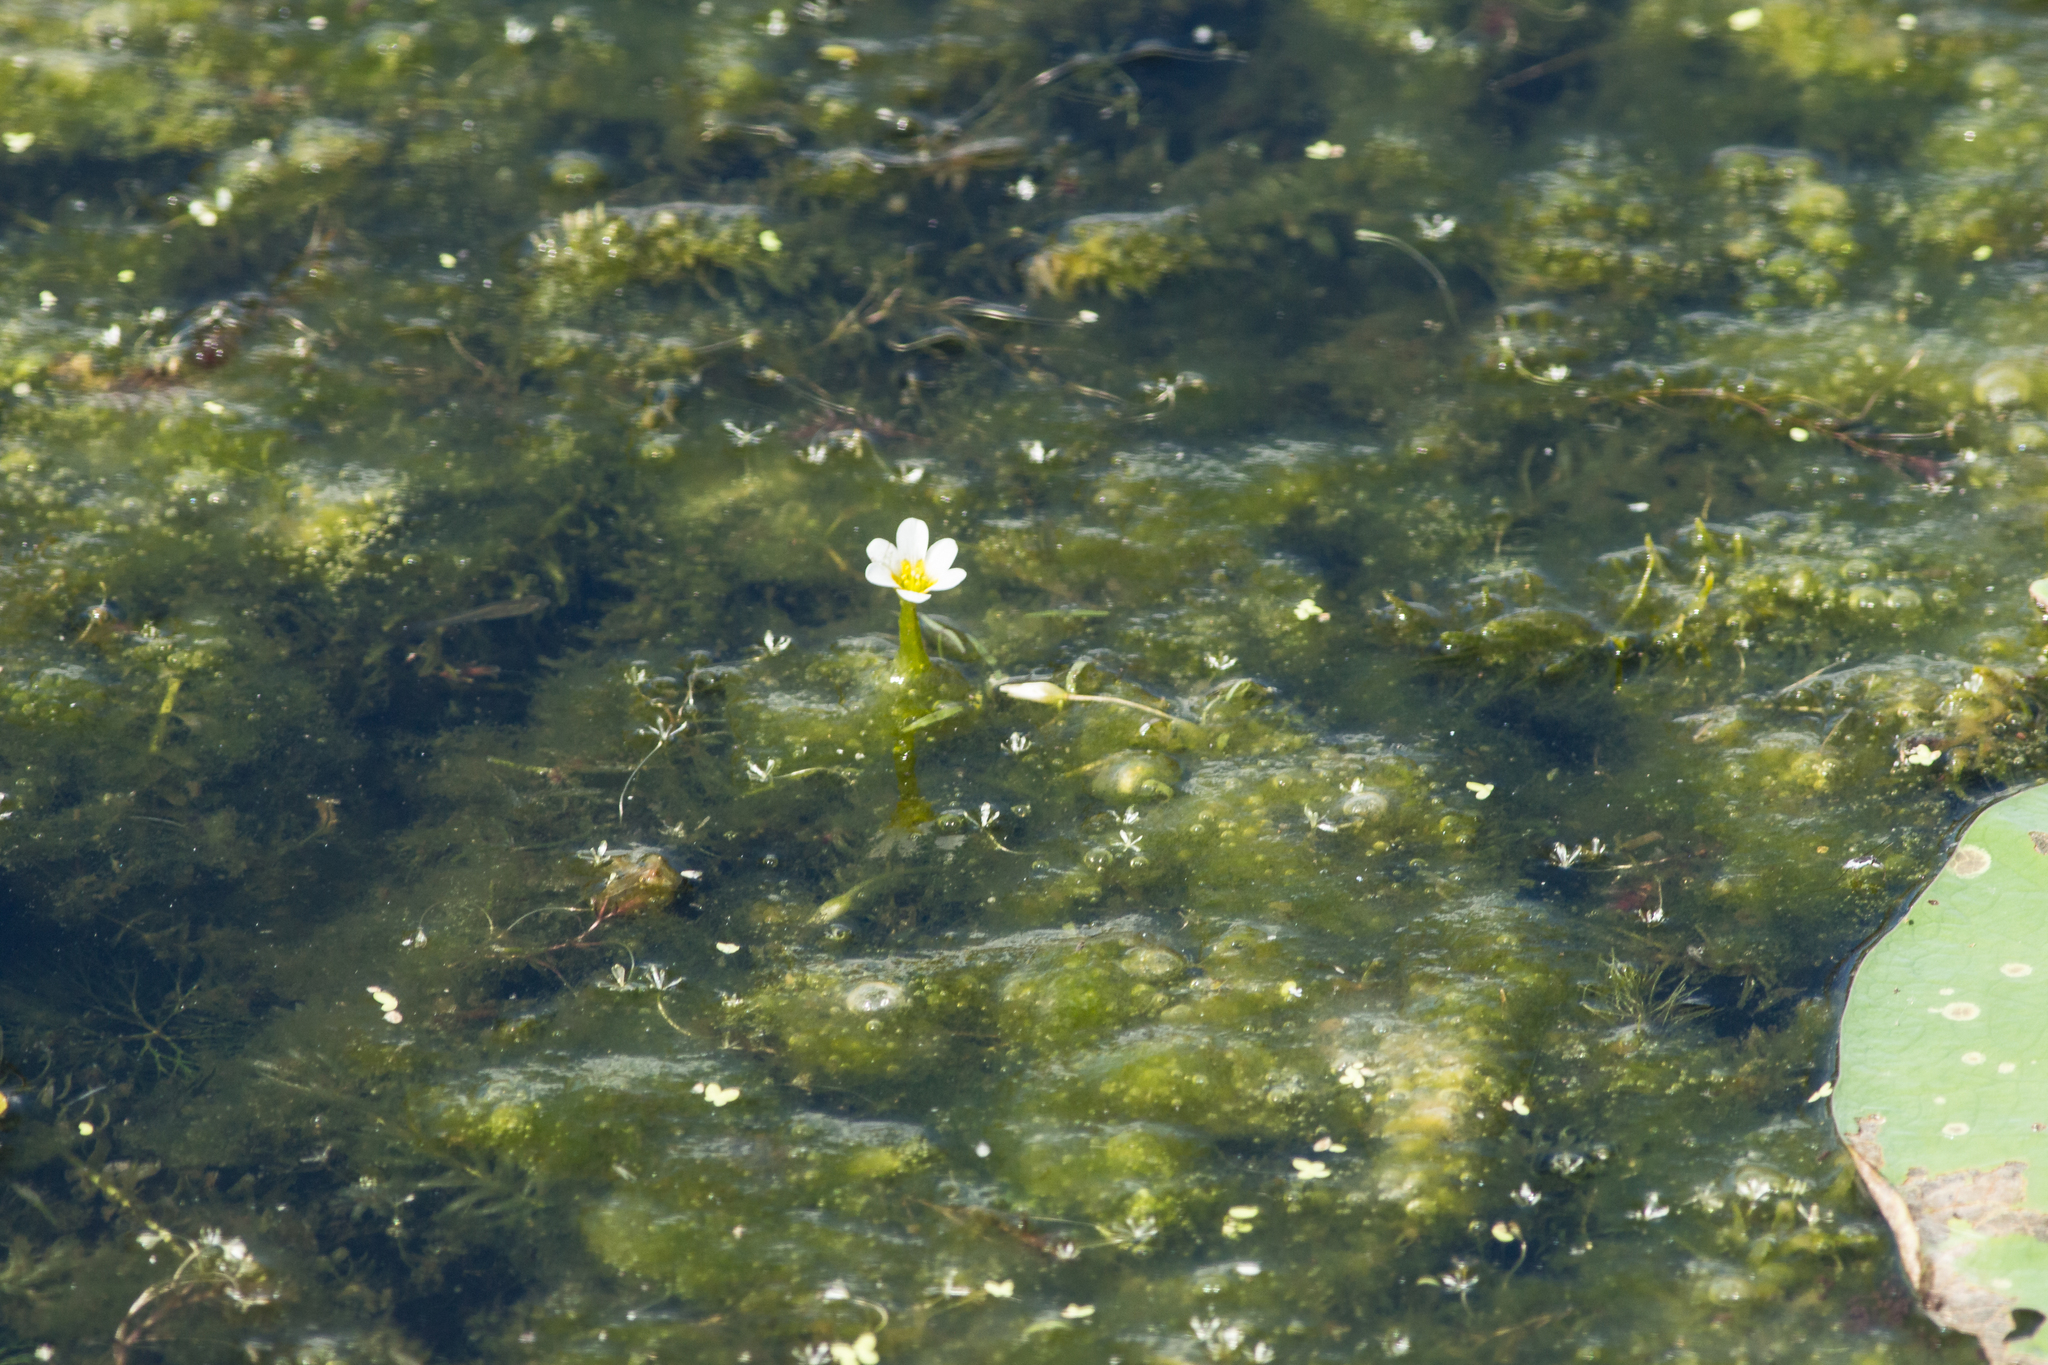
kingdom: Plantae
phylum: Tracheophyta
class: Magnoliopsida
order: Nymphaeales
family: Cabombaceae
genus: Cabomba
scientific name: Cabomba caroliniana
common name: Fanwort
